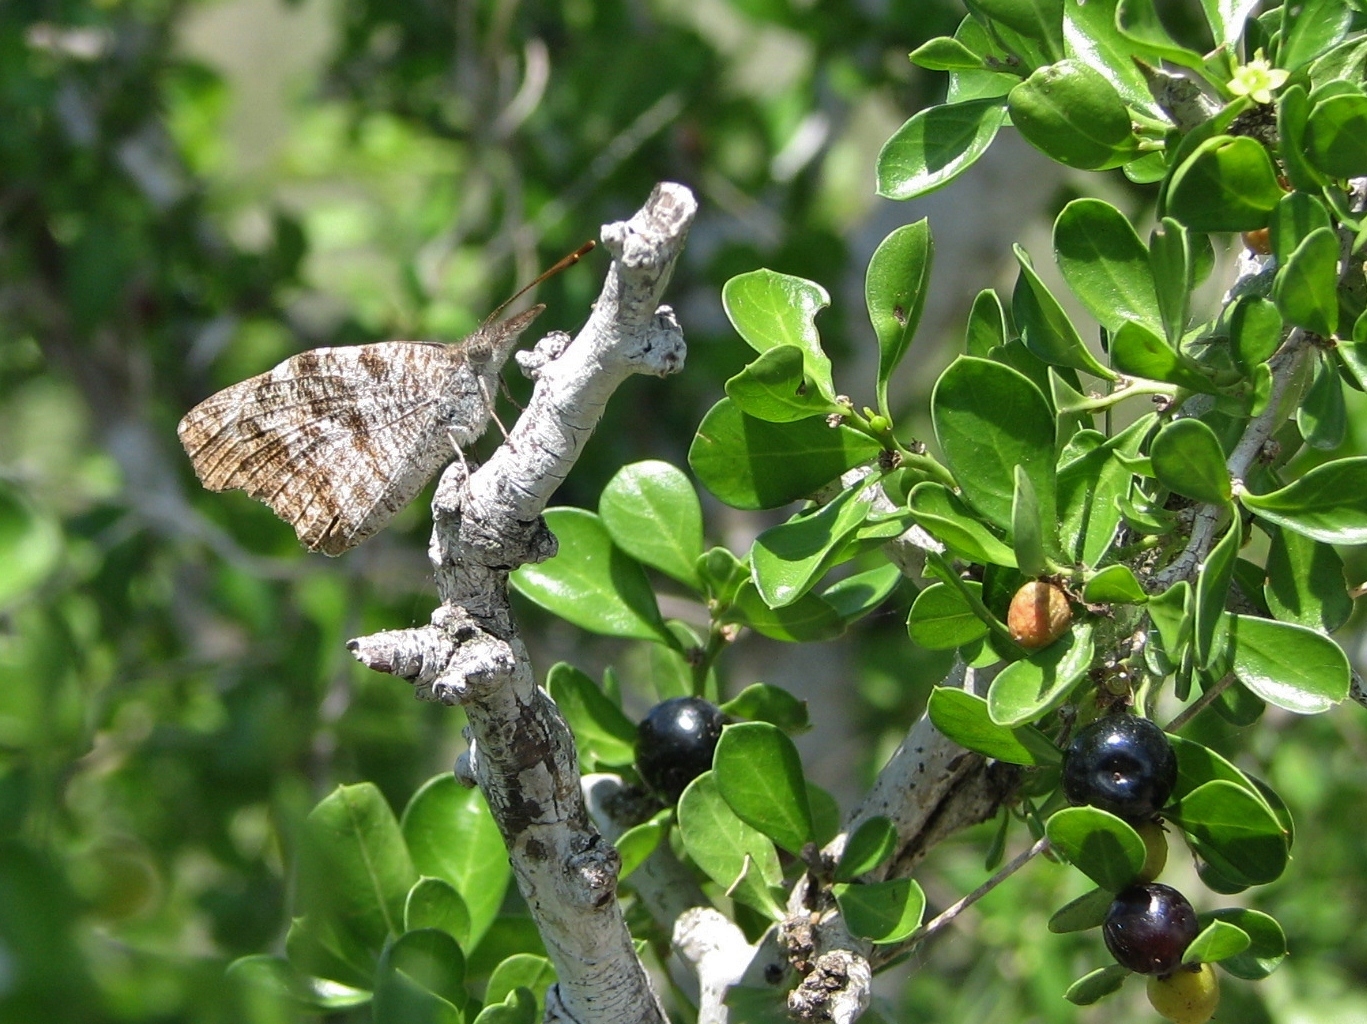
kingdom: Animalia
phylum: Arthropoda
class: Insecta
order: Lepidoptera
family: Nymphalidae
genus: Libytheana
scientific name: Libytheana carinenta
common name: American snout
